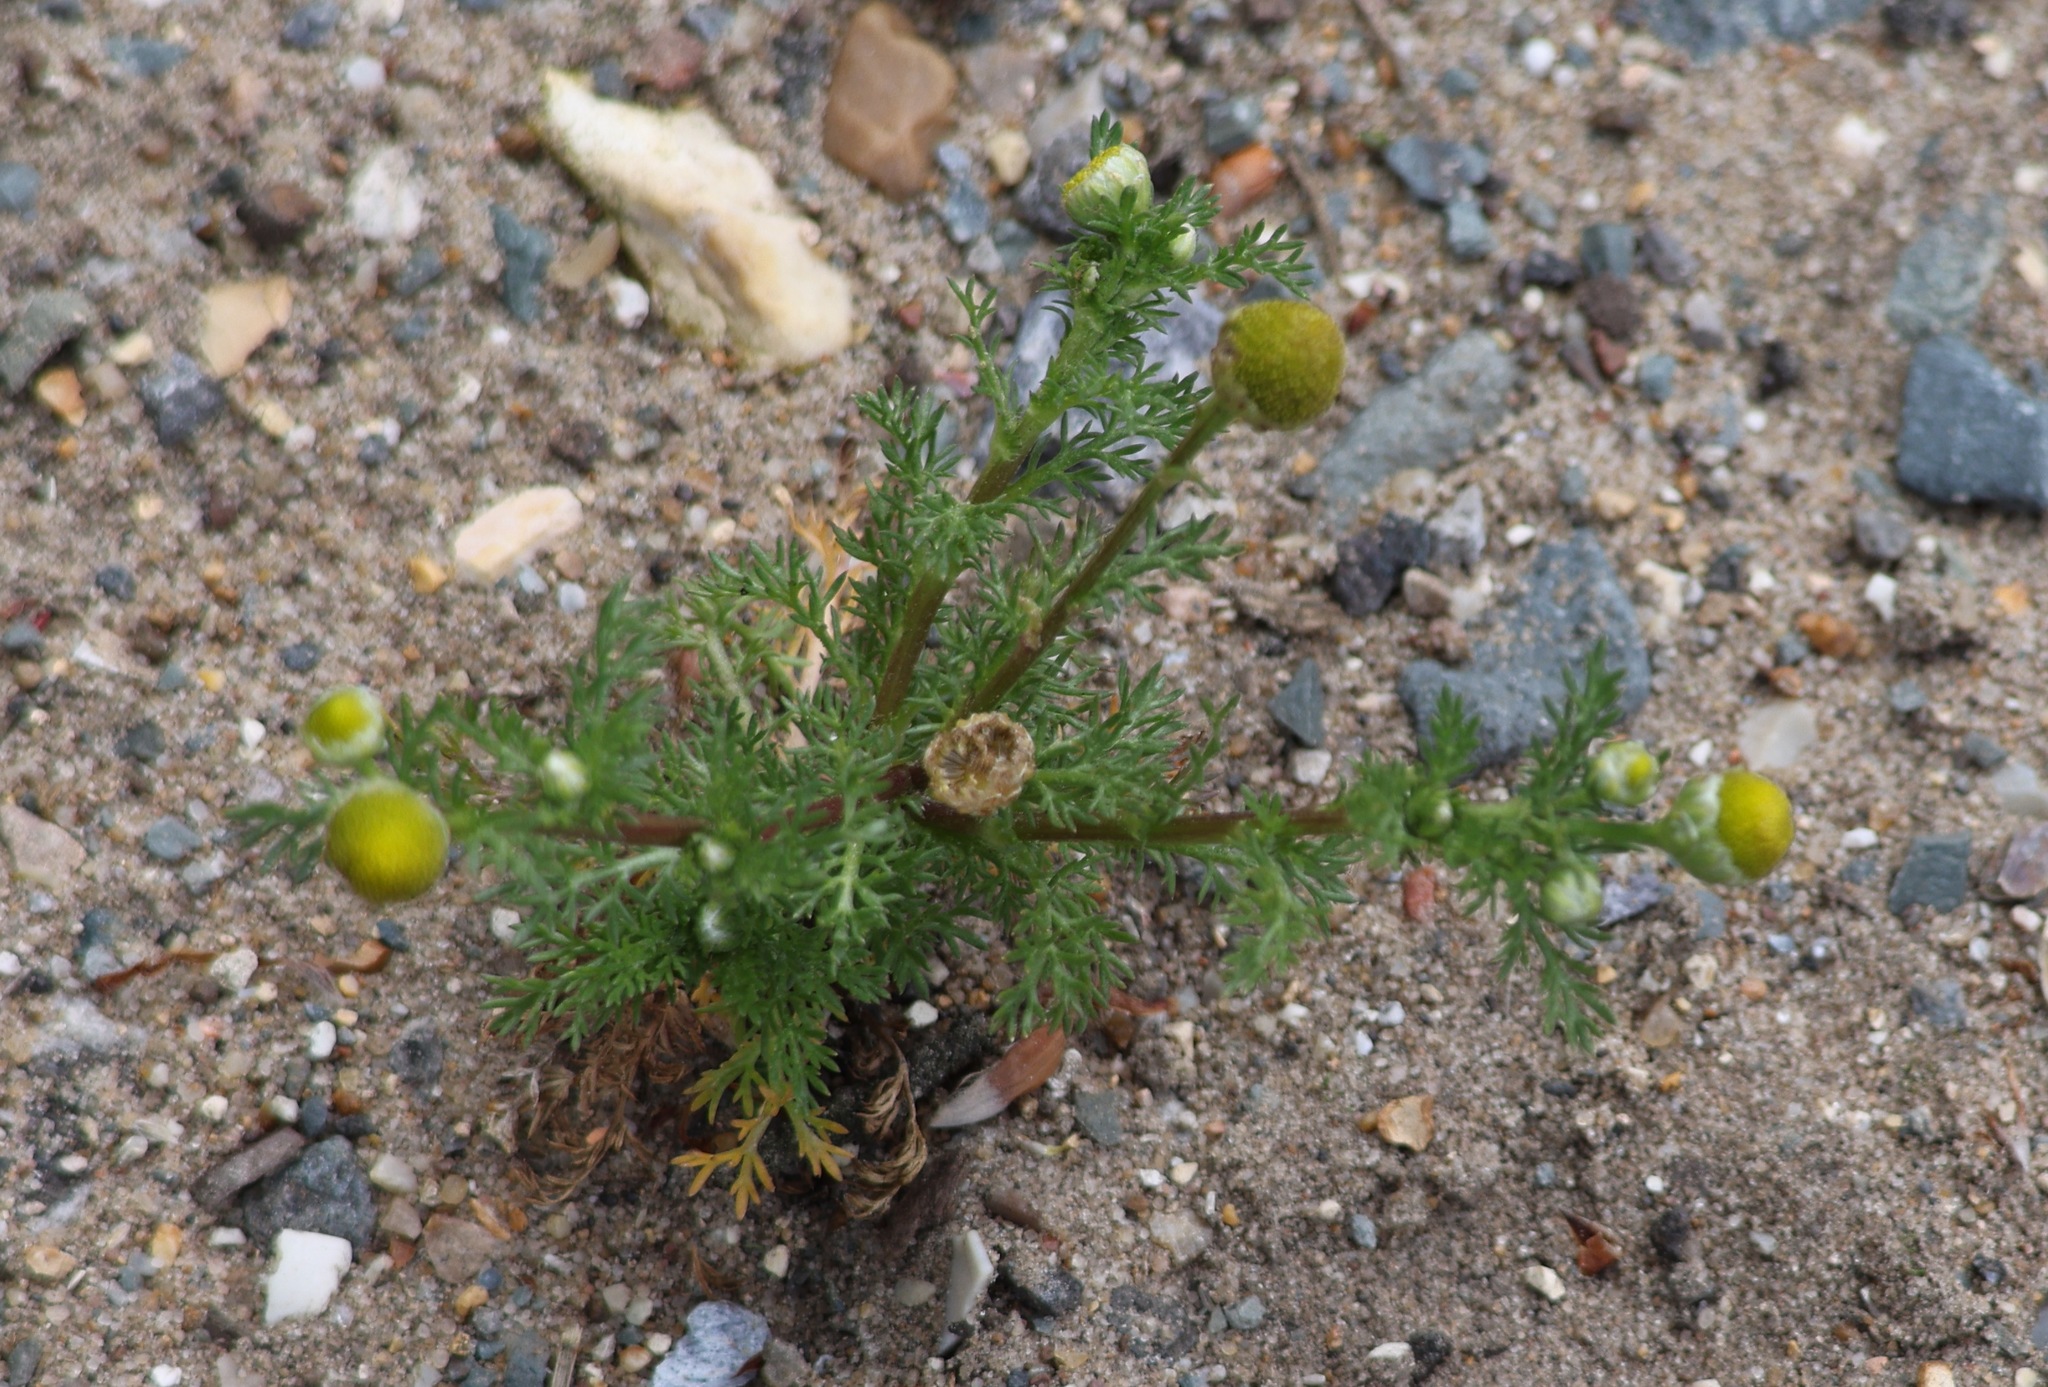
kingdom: Plantae
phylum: Tracheophyta
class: Magnoliopsida
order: Asterales
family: Asteraceae
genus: Matricaria
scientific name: Matricaria discoidea
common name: Disc mayweed
